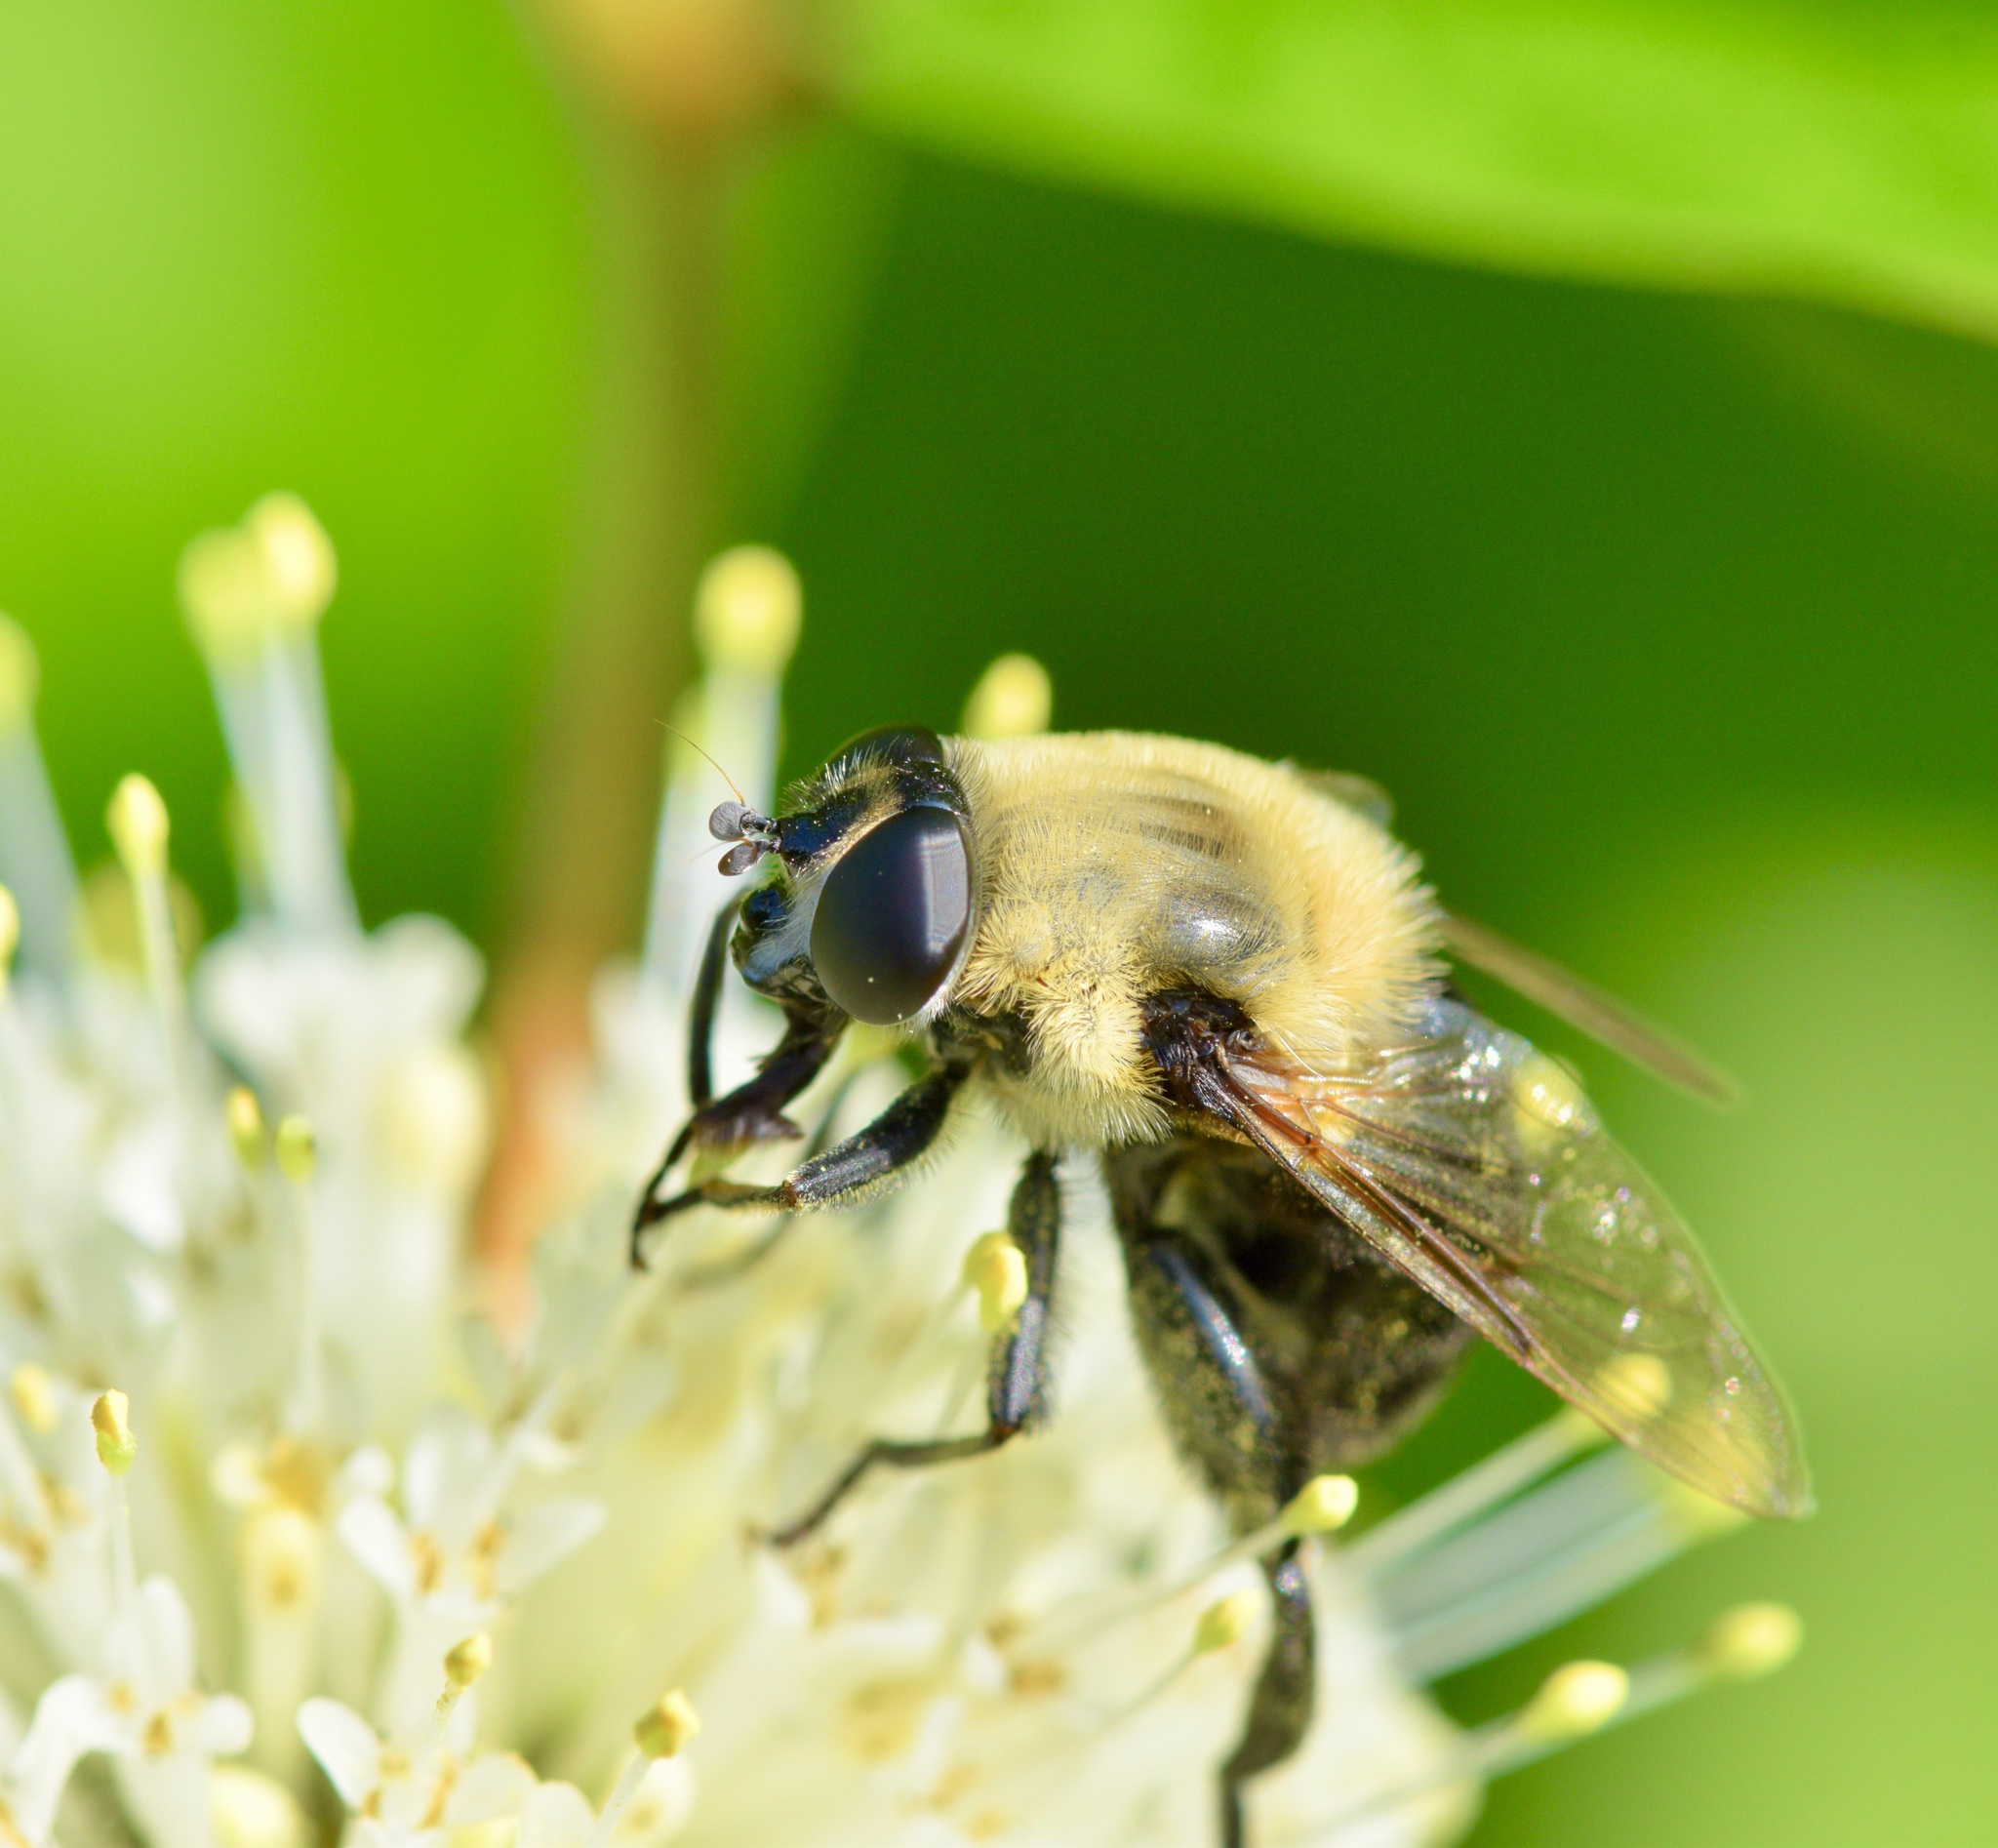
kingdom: Animalia
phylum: Arthropoda
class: Insecta
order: Diptera
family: Syrphidae
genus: Imatisma
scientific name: Imatisma bautias
